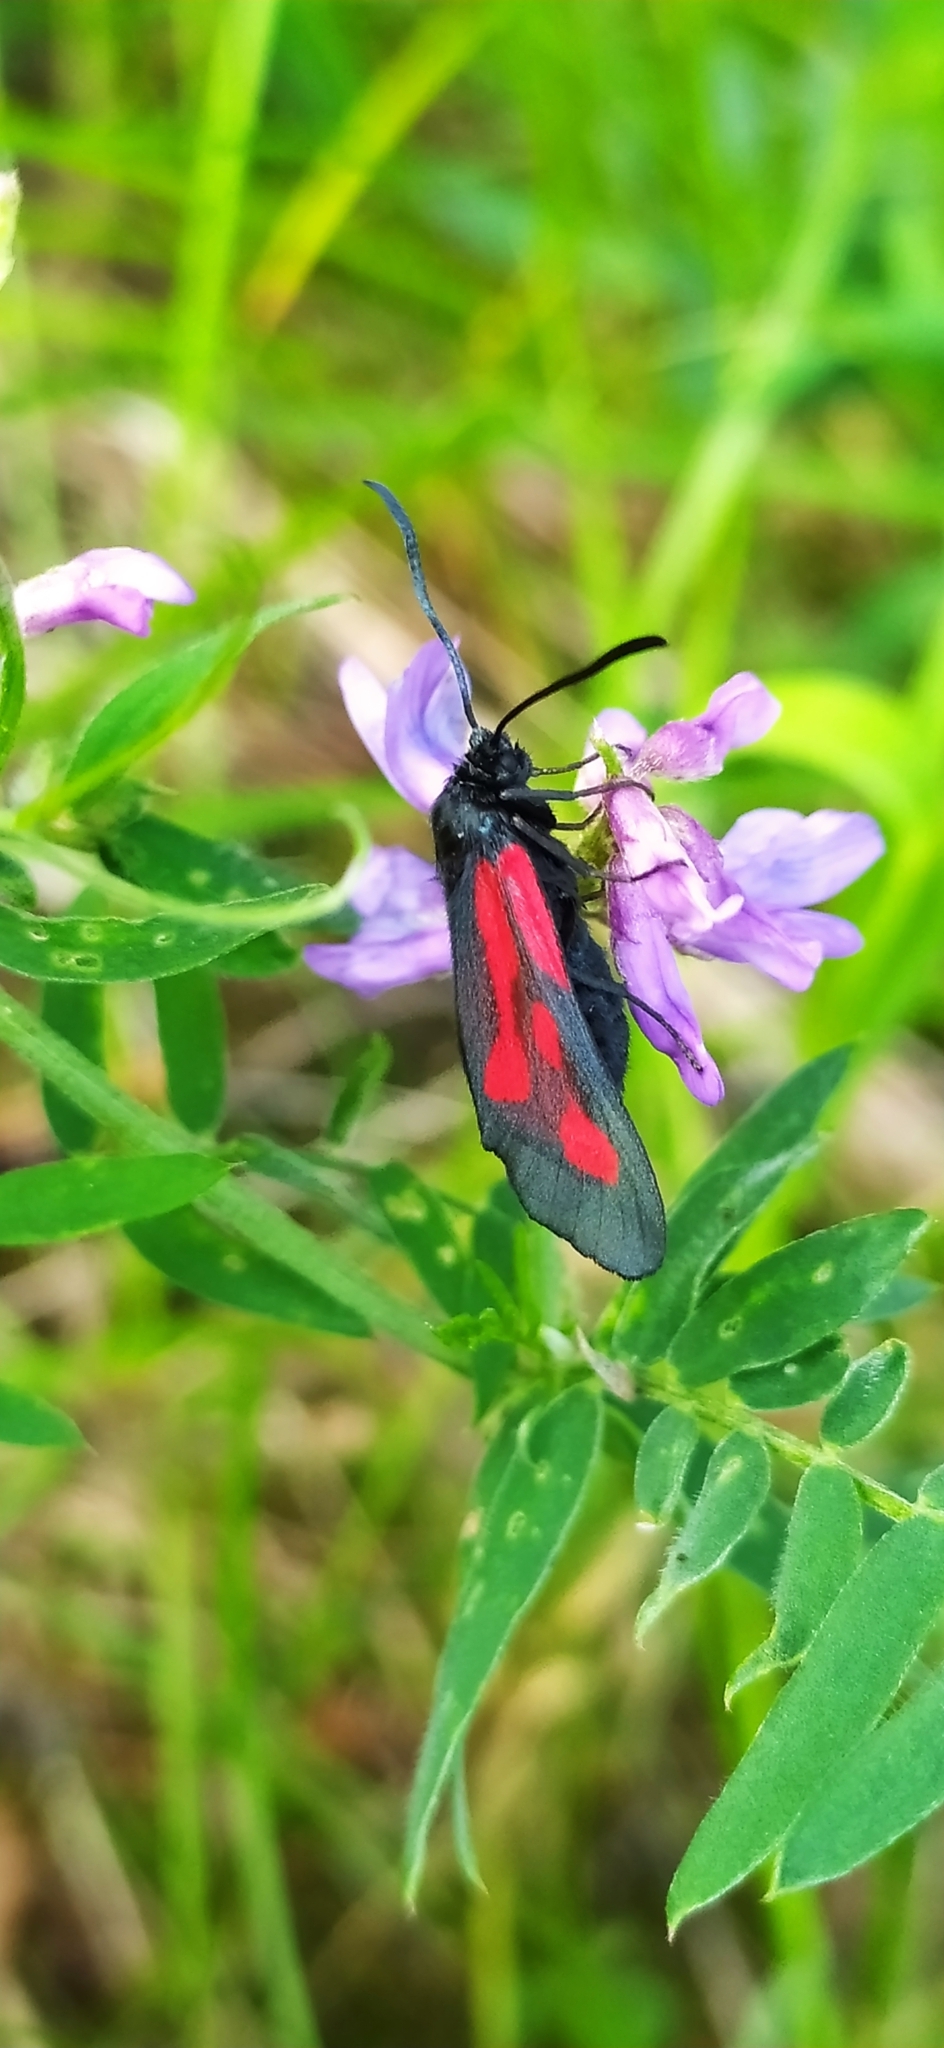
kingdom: Animalia
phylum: Arthropoda
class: Insecta
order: Lepidoptera
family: Zygaenidae
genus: Zygaena
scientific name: Zygaena osterodensis
